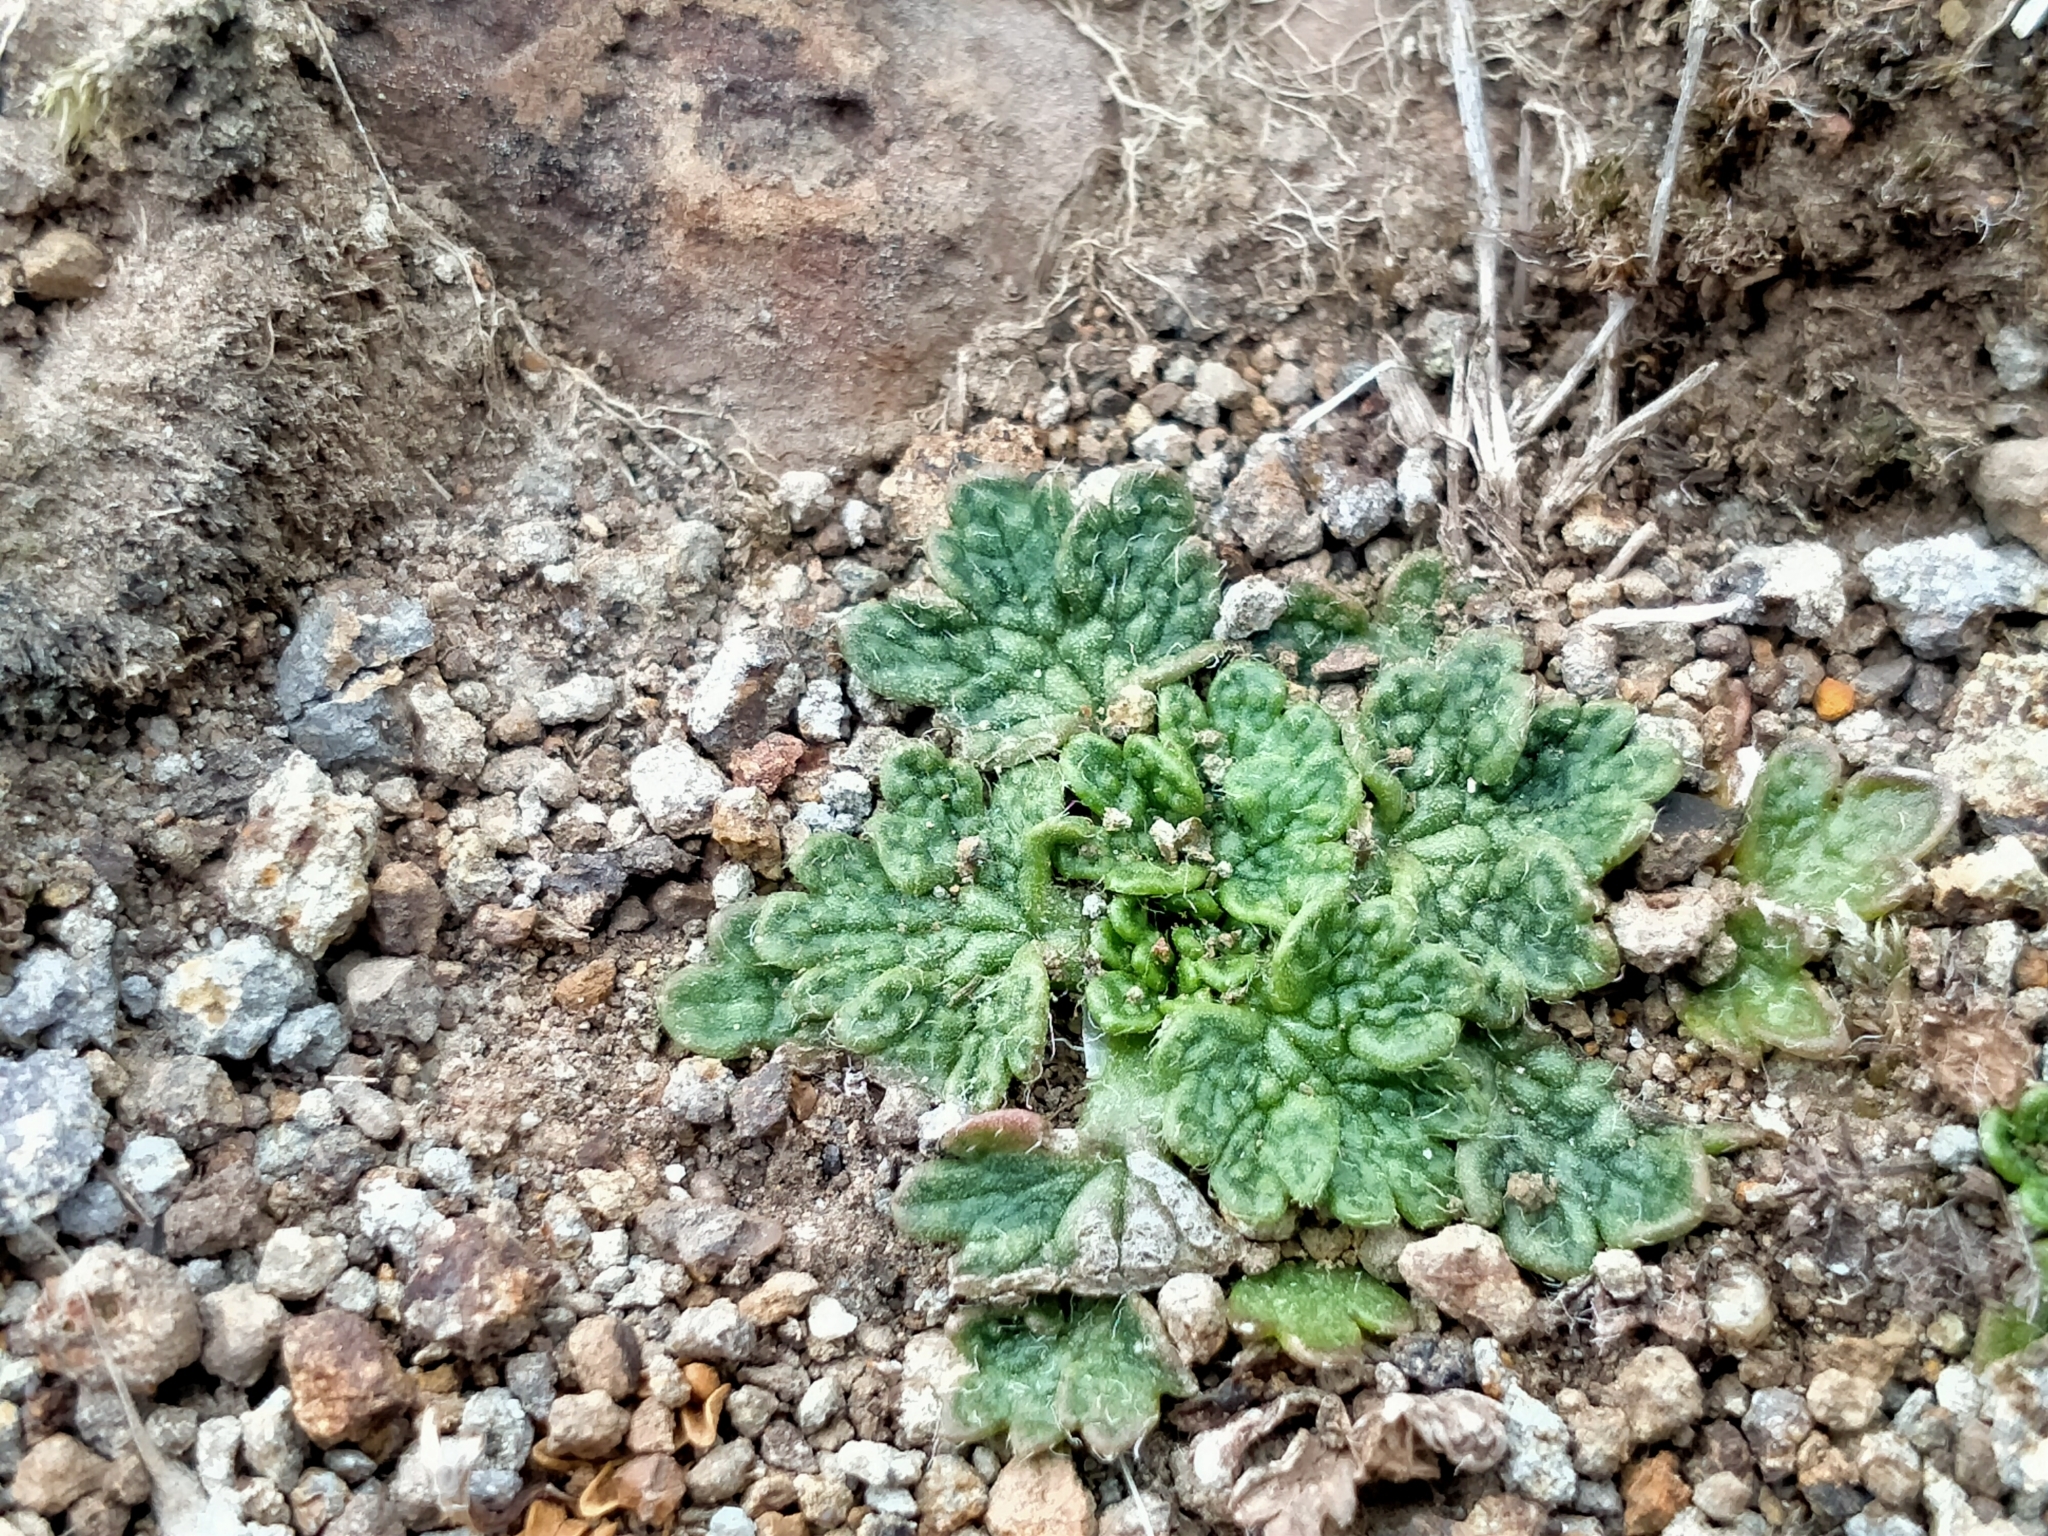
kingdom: Plantae
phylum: Tracheophyta
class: Magnoliopsida
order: Ranunculales
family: Ranunculaceae
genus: Ranunculus
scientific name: Ranunculus recens
